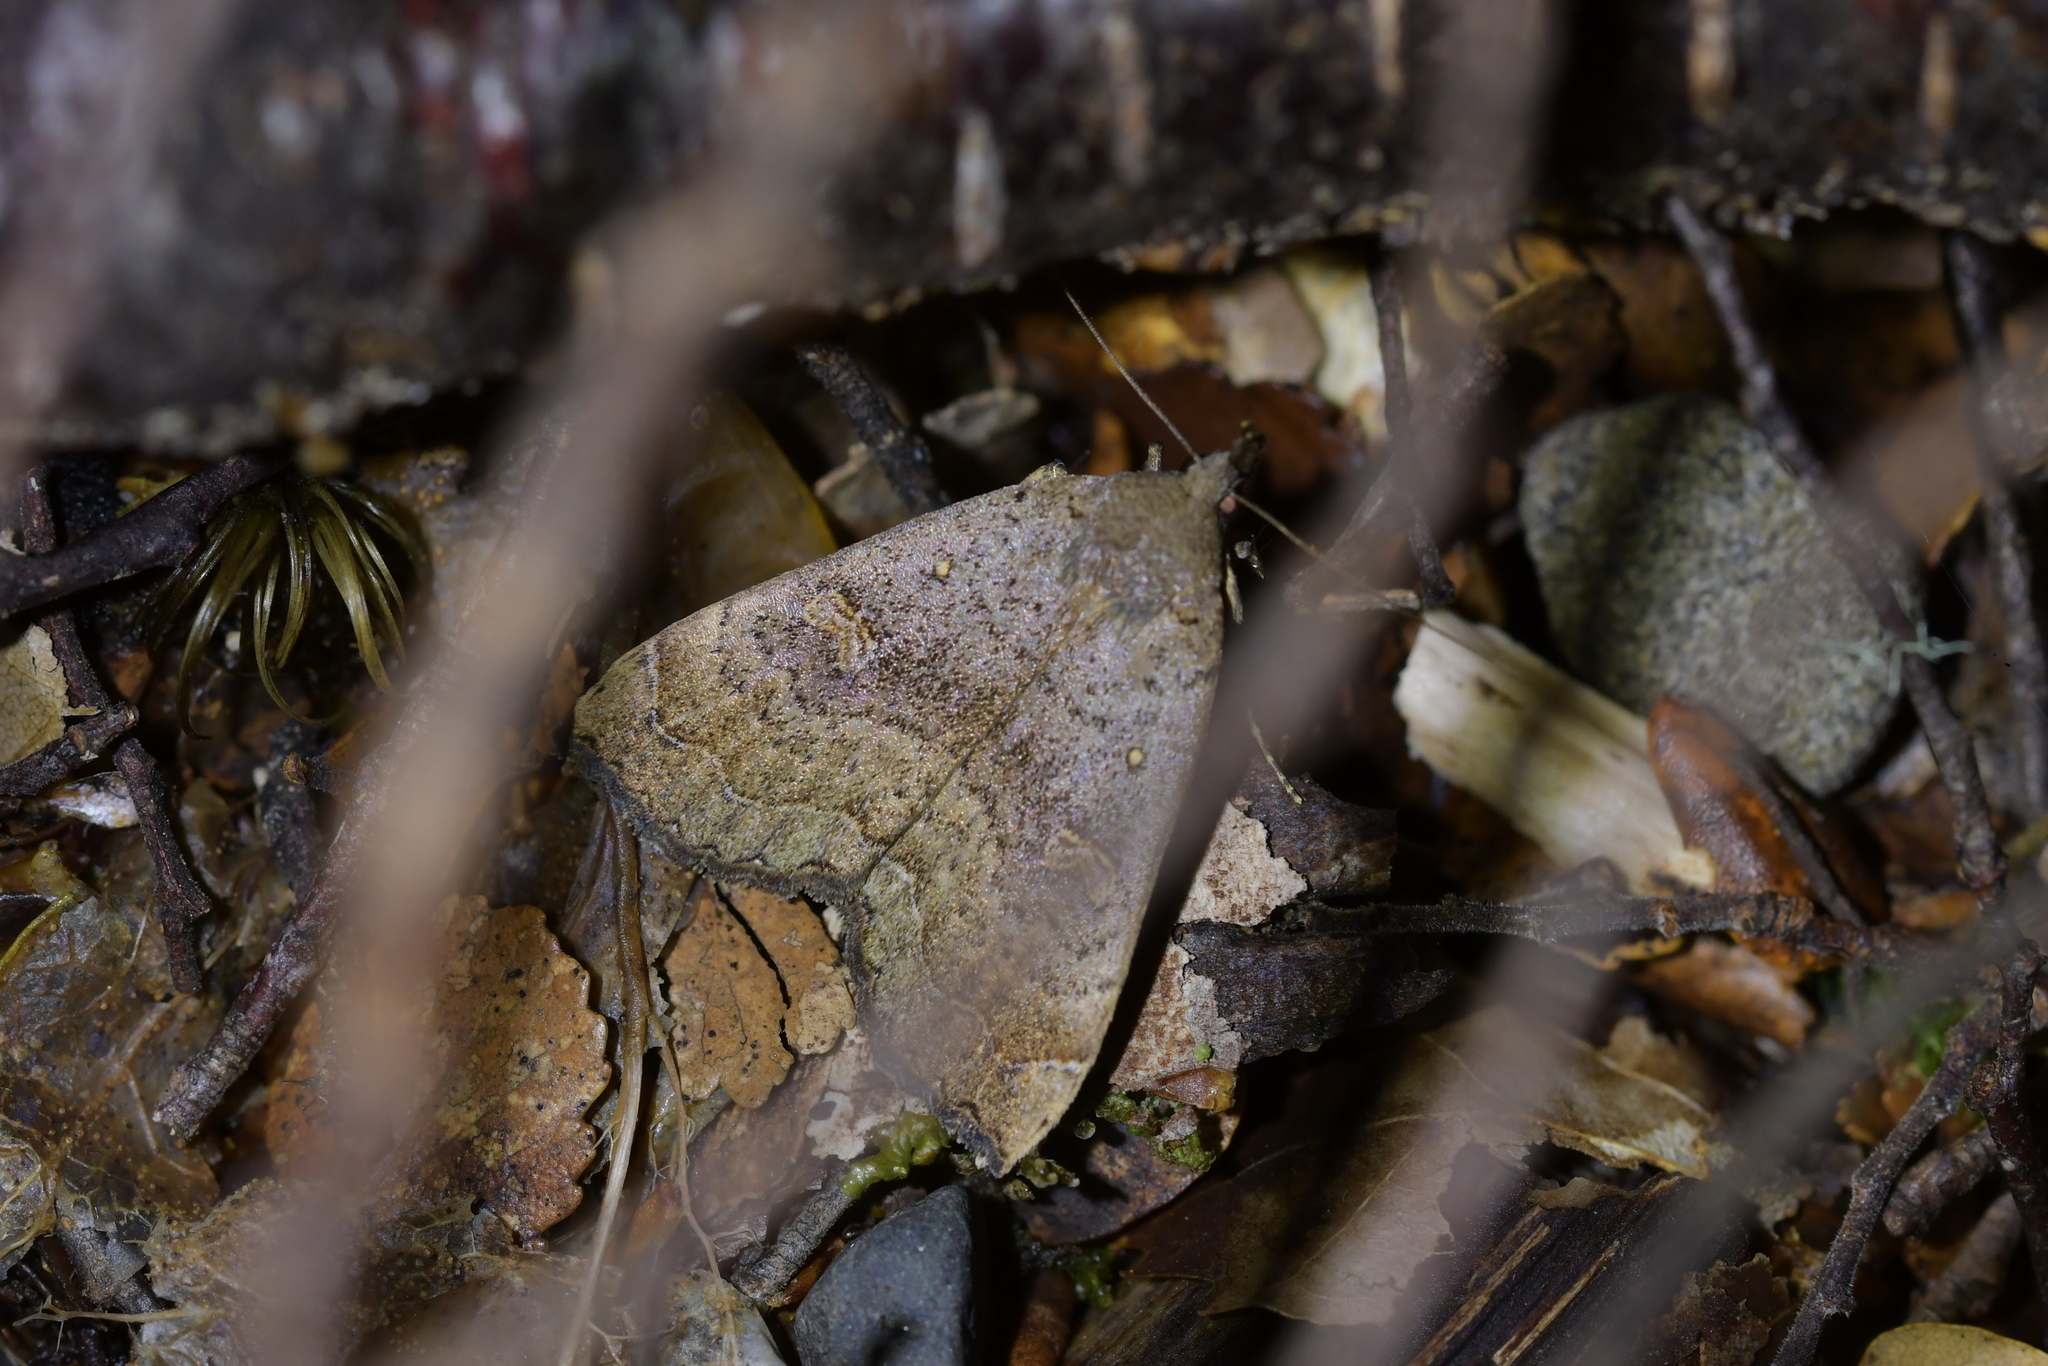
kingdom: Animalia
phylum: Arthropoda
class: Insecta
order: Lepidoptera
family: Erebidae
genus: Rhapsa
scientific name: Rhapsa scotosialis
